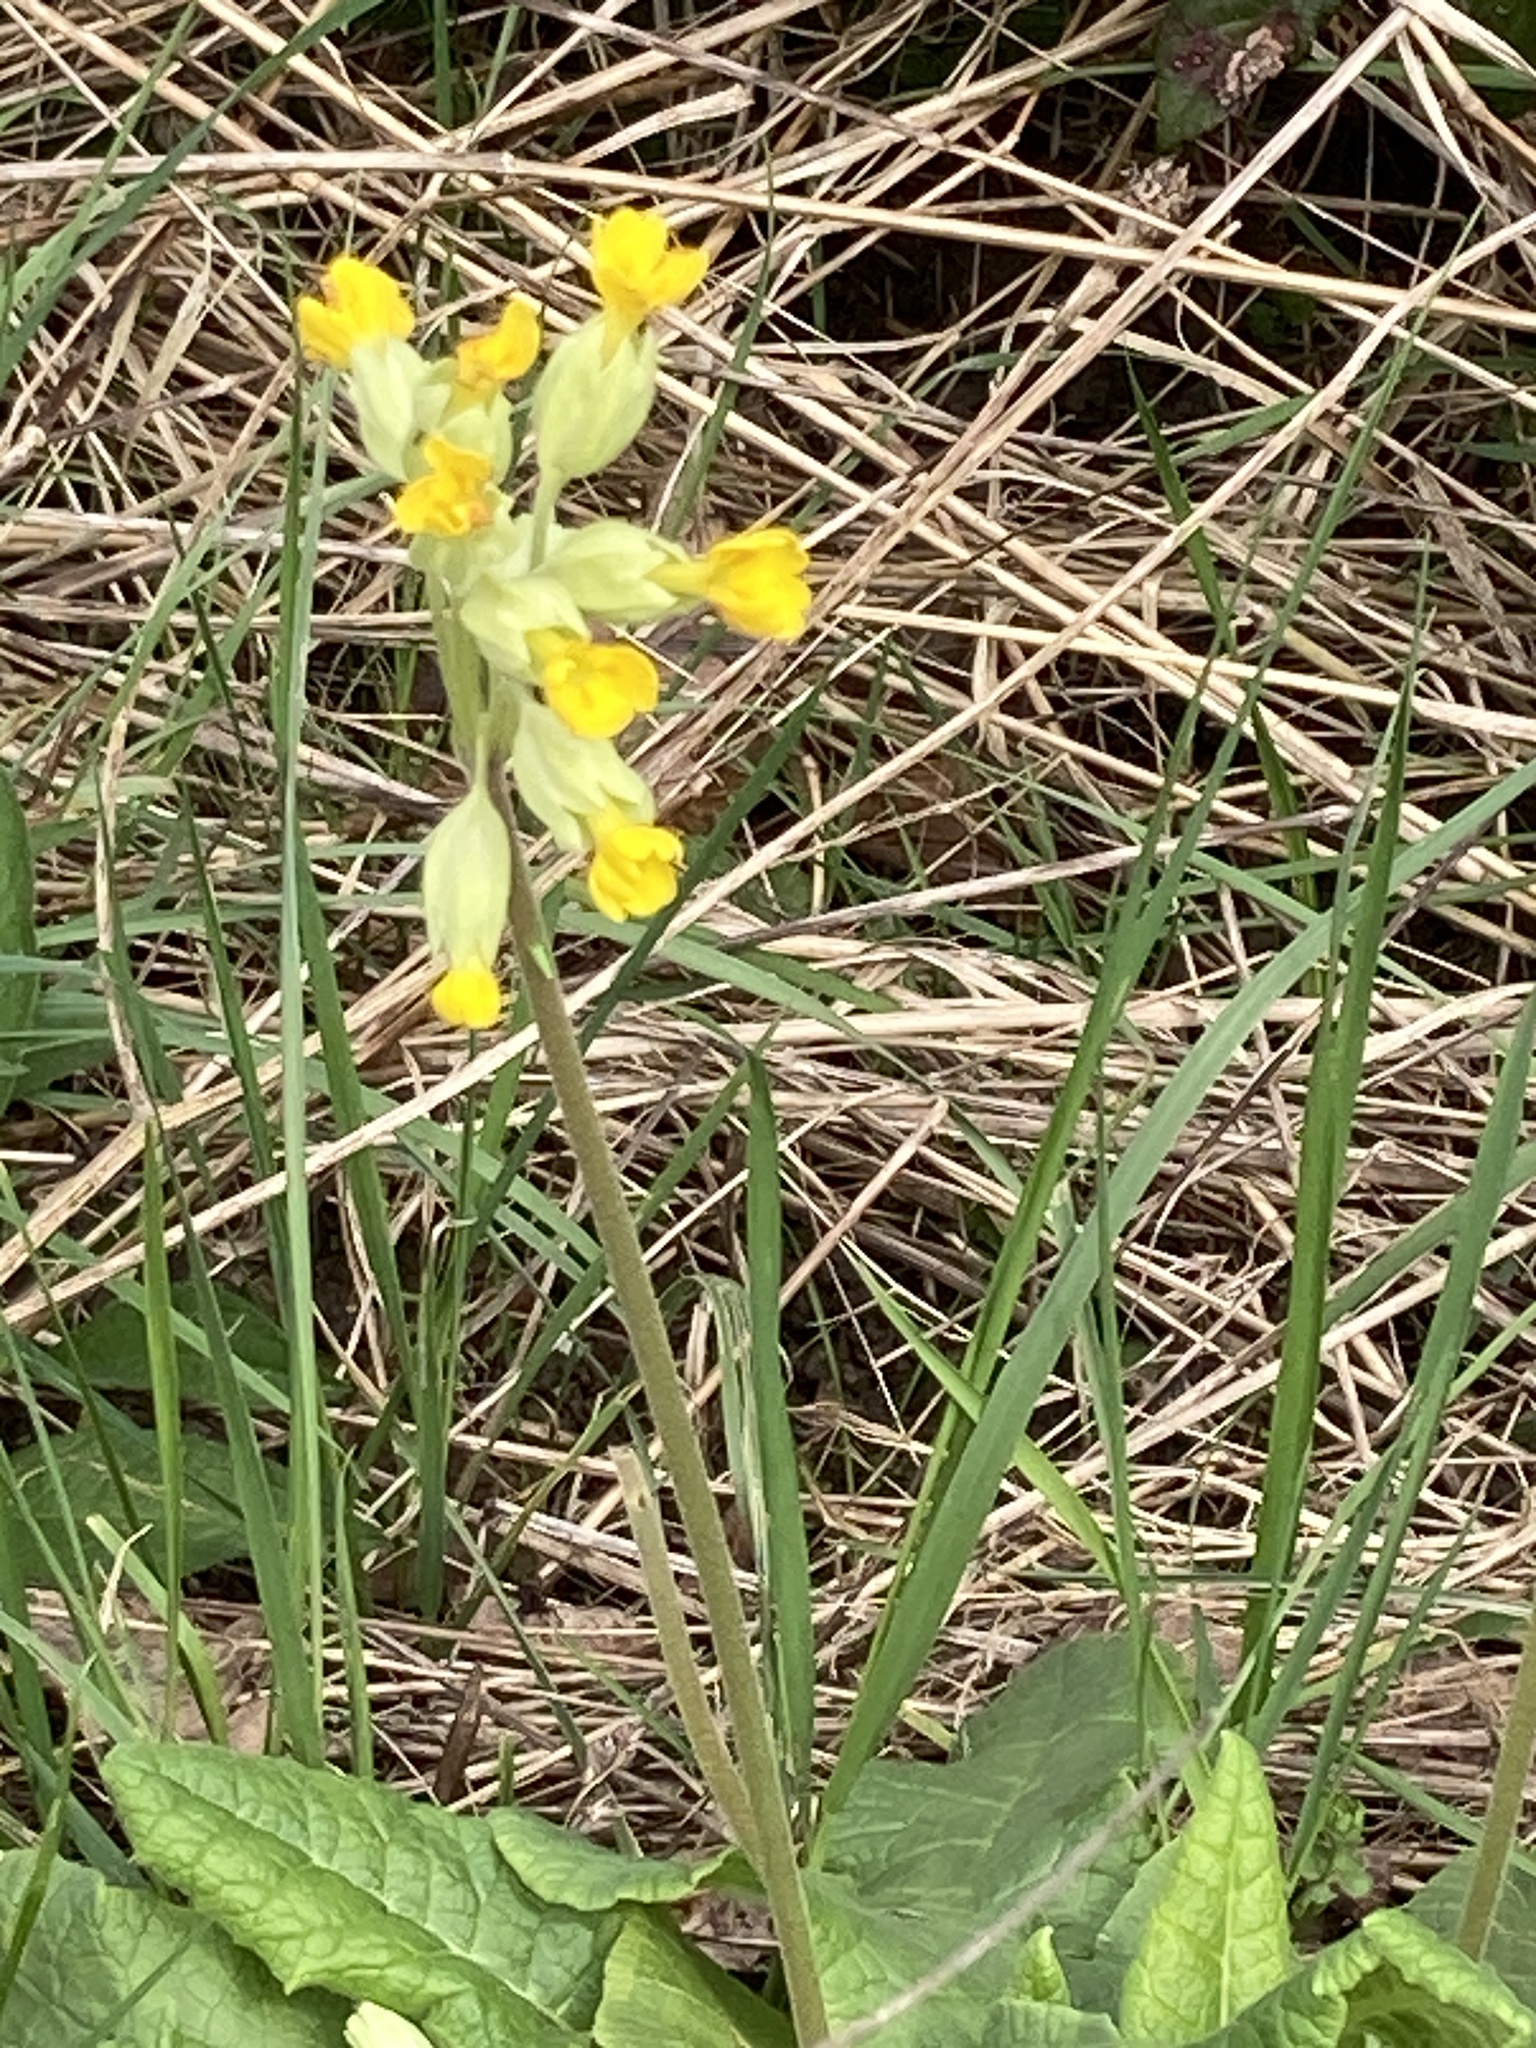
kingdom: Plantae
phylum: Tracheophyta
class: Magnoliopsida
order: Ericales
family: Primulaceae
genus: Primula
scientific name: Primula veris
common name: Cowslip
